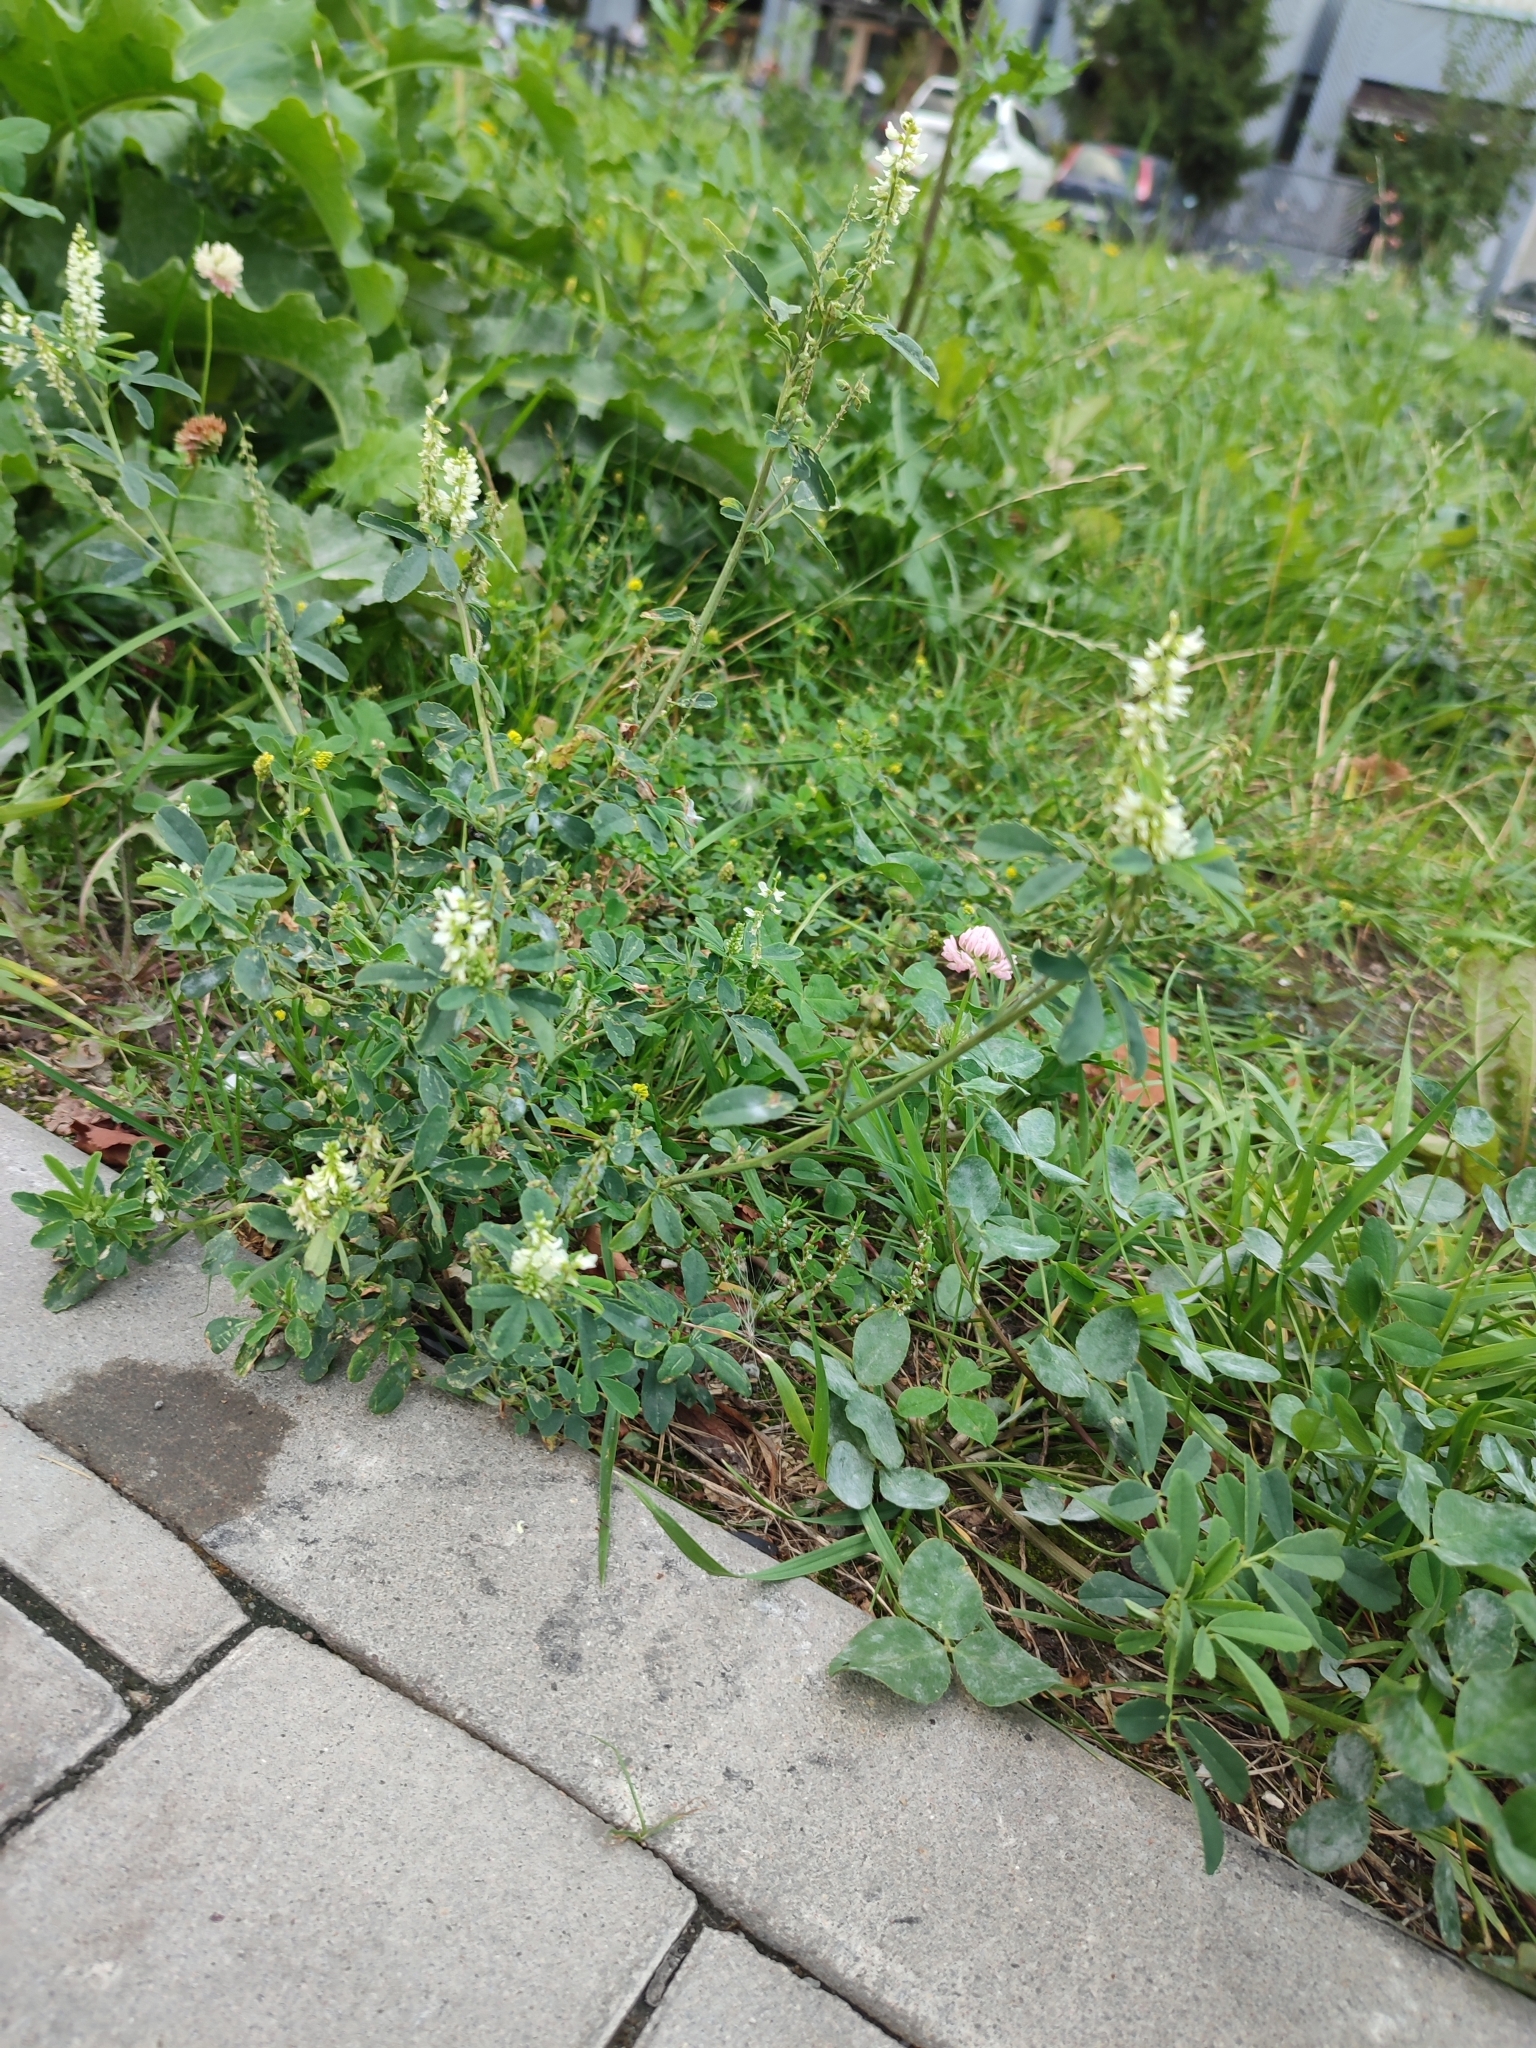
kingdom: Plantae
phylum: Tracheophyta
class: Magnoliopsida
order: Fabales
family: Fabaceae
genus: Melilotus
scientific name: Melilotus albus
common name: White melilot
